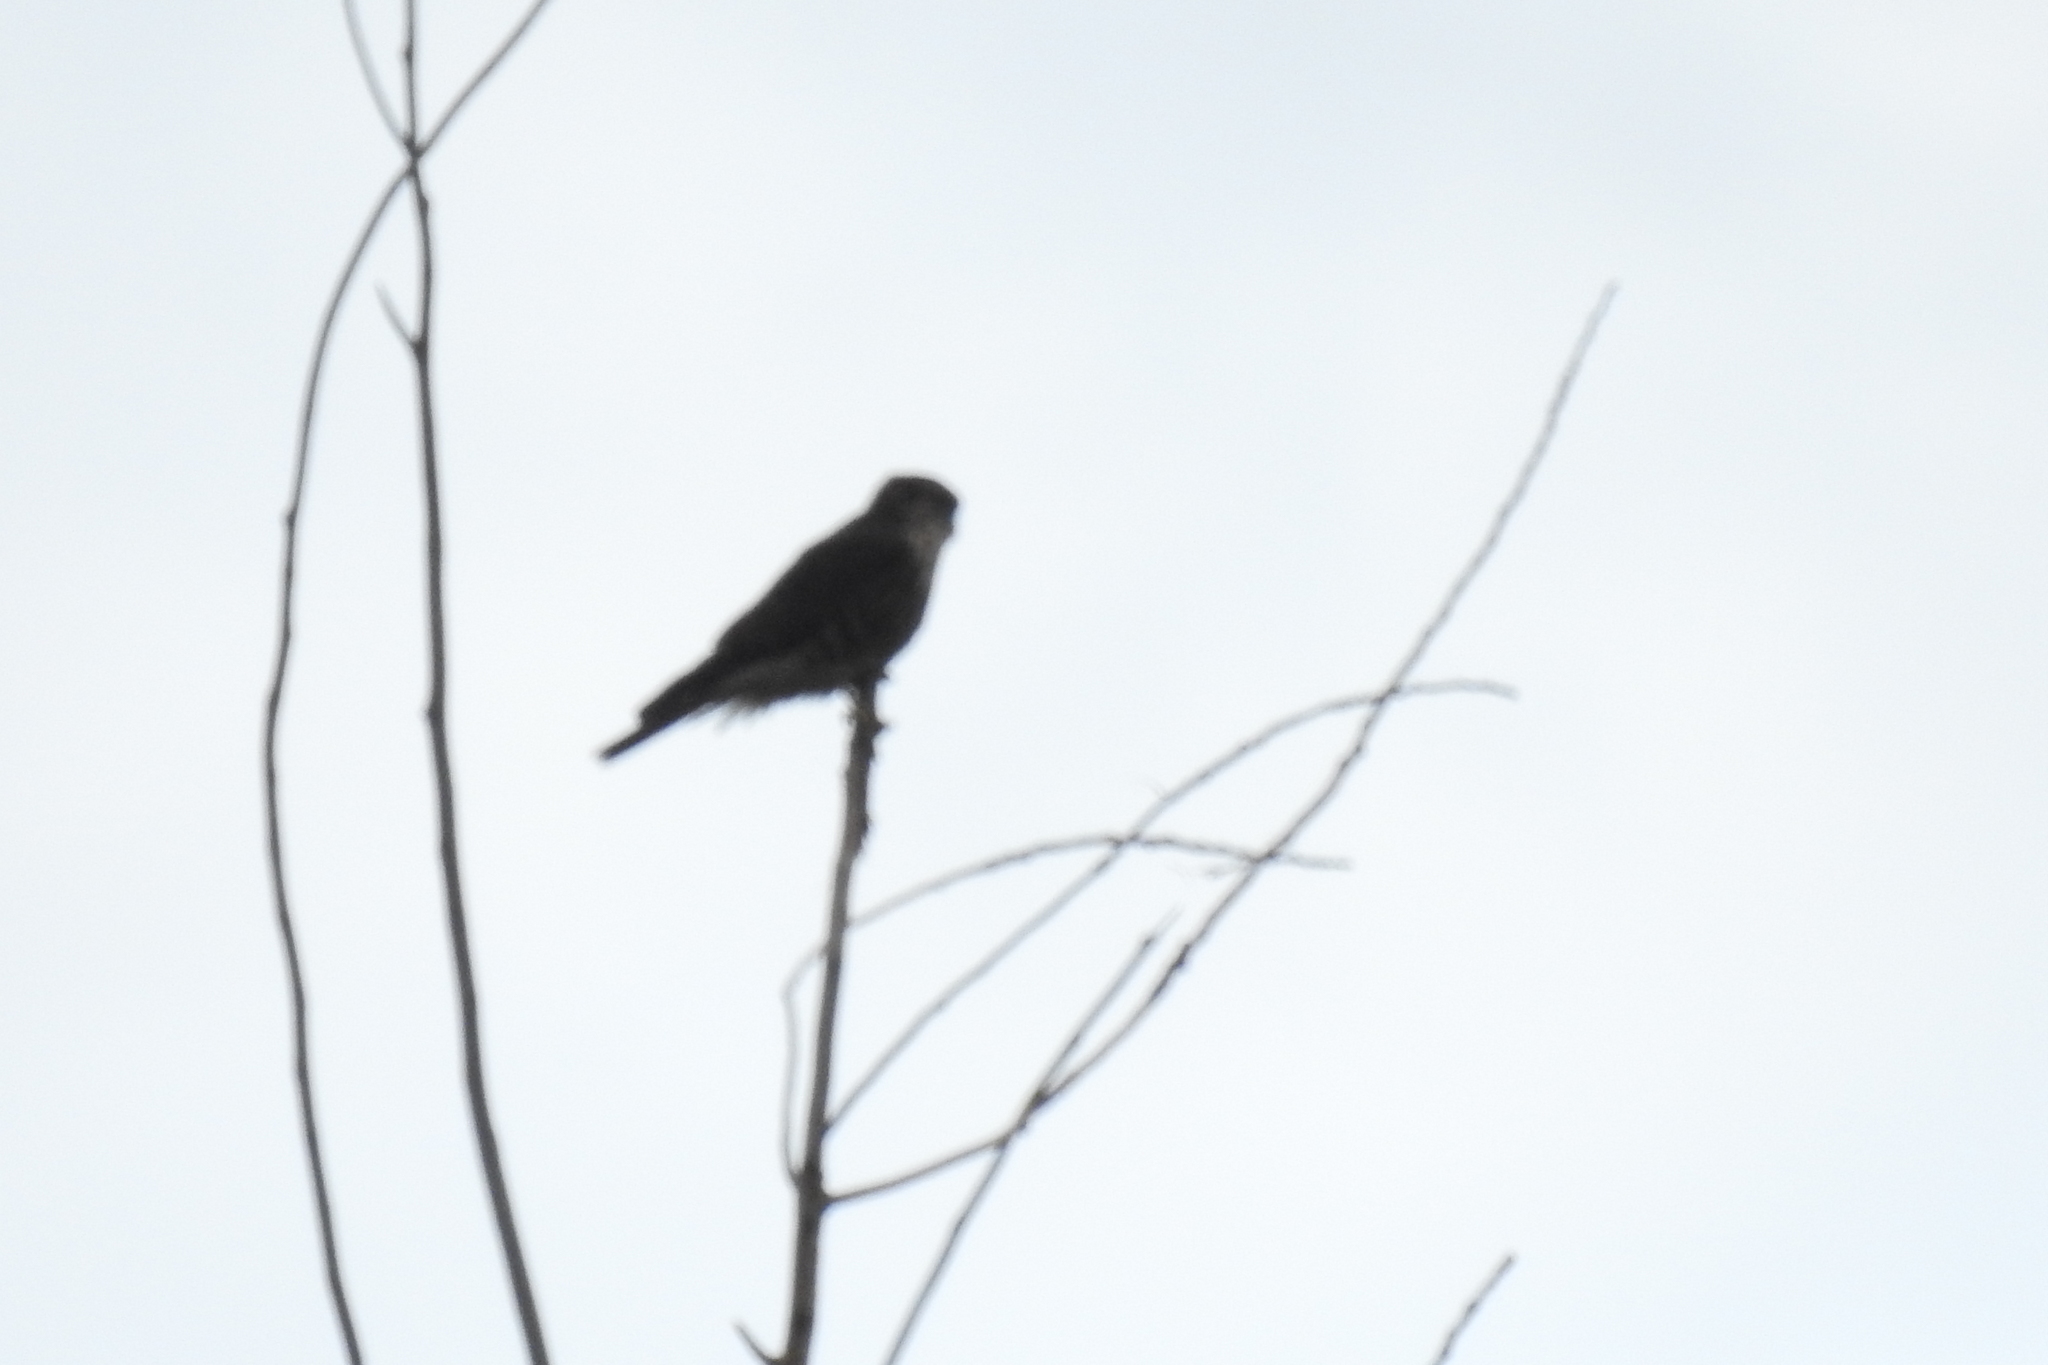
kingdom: Animalia
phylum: Chordata
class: Aves
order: Falconiformes
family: Falconidae
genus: Falco
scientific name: Falco columbarius
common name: Merlin
